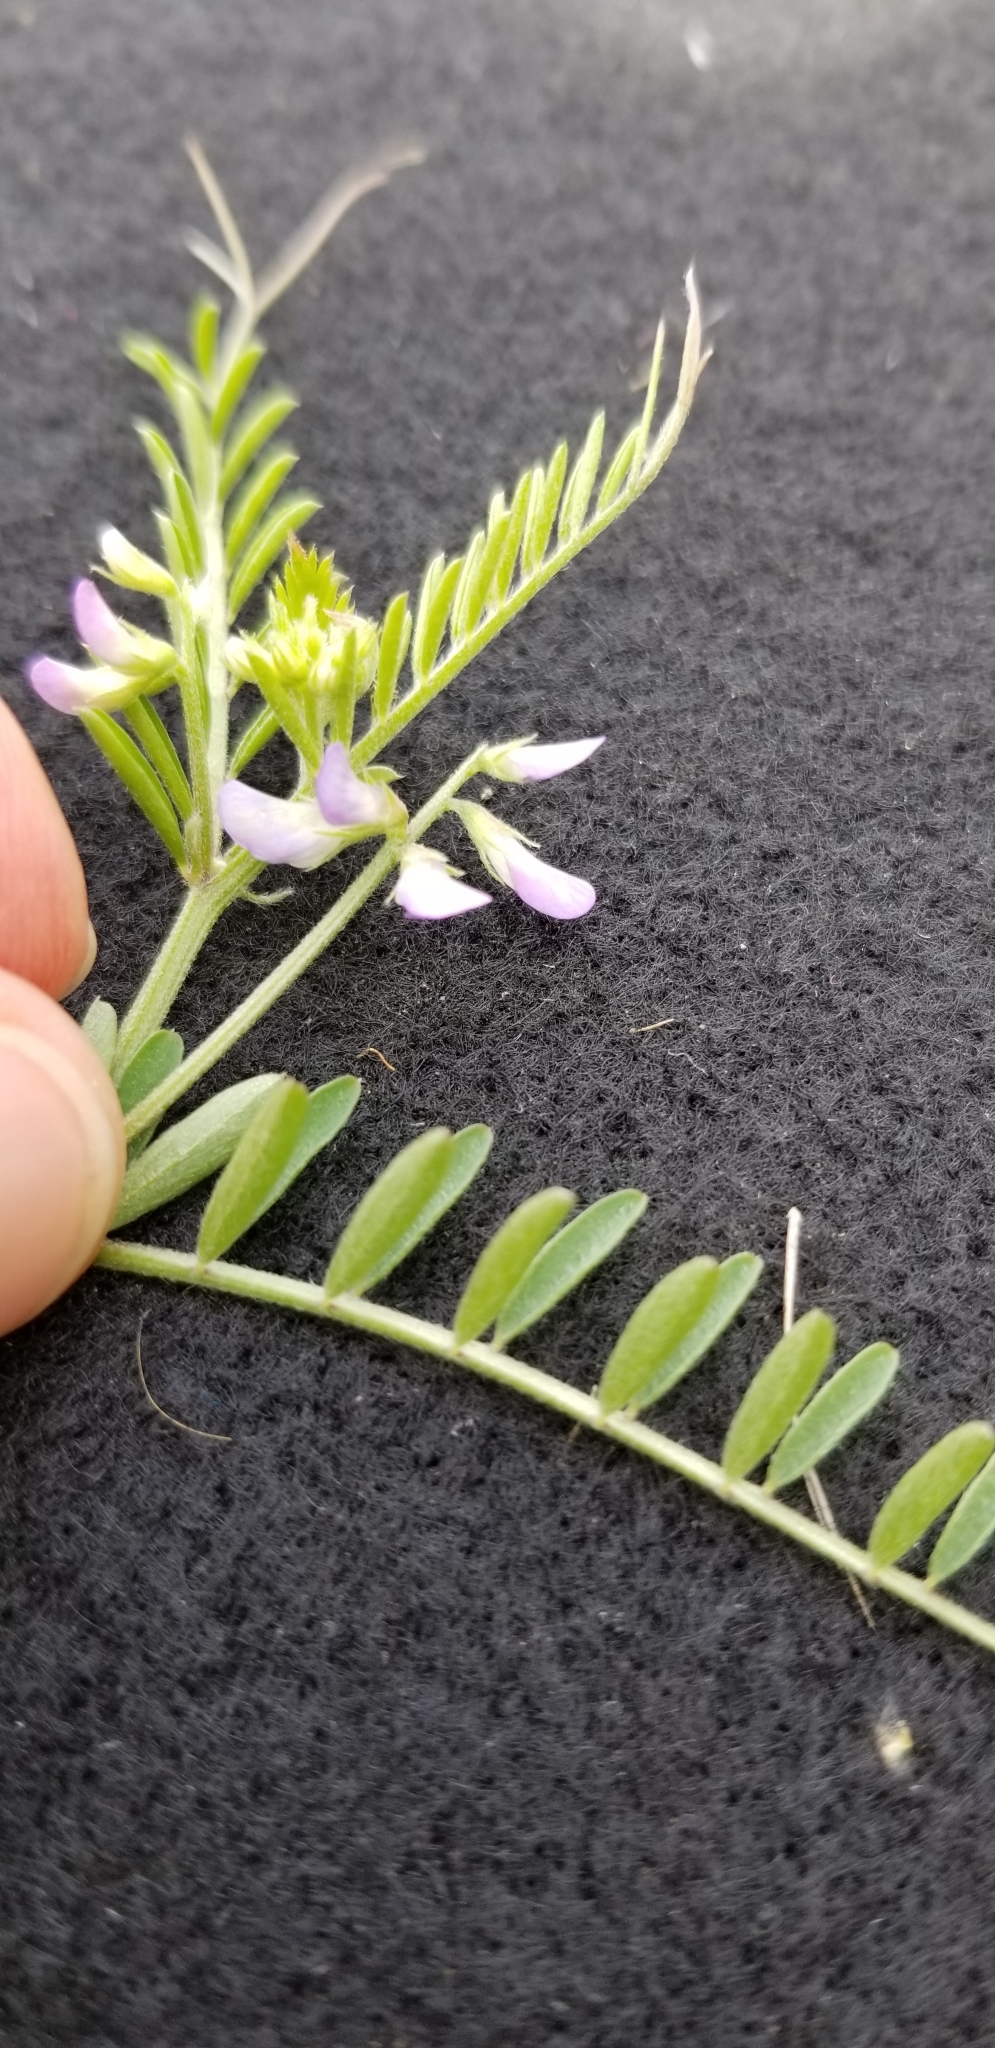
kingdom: Plantae
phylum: Tracheophyta
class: Magnoliopsida
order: Fabales
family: Fabaceae
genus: Vicia
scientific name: Vicia ludoviciana
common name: Louisiana vetch
